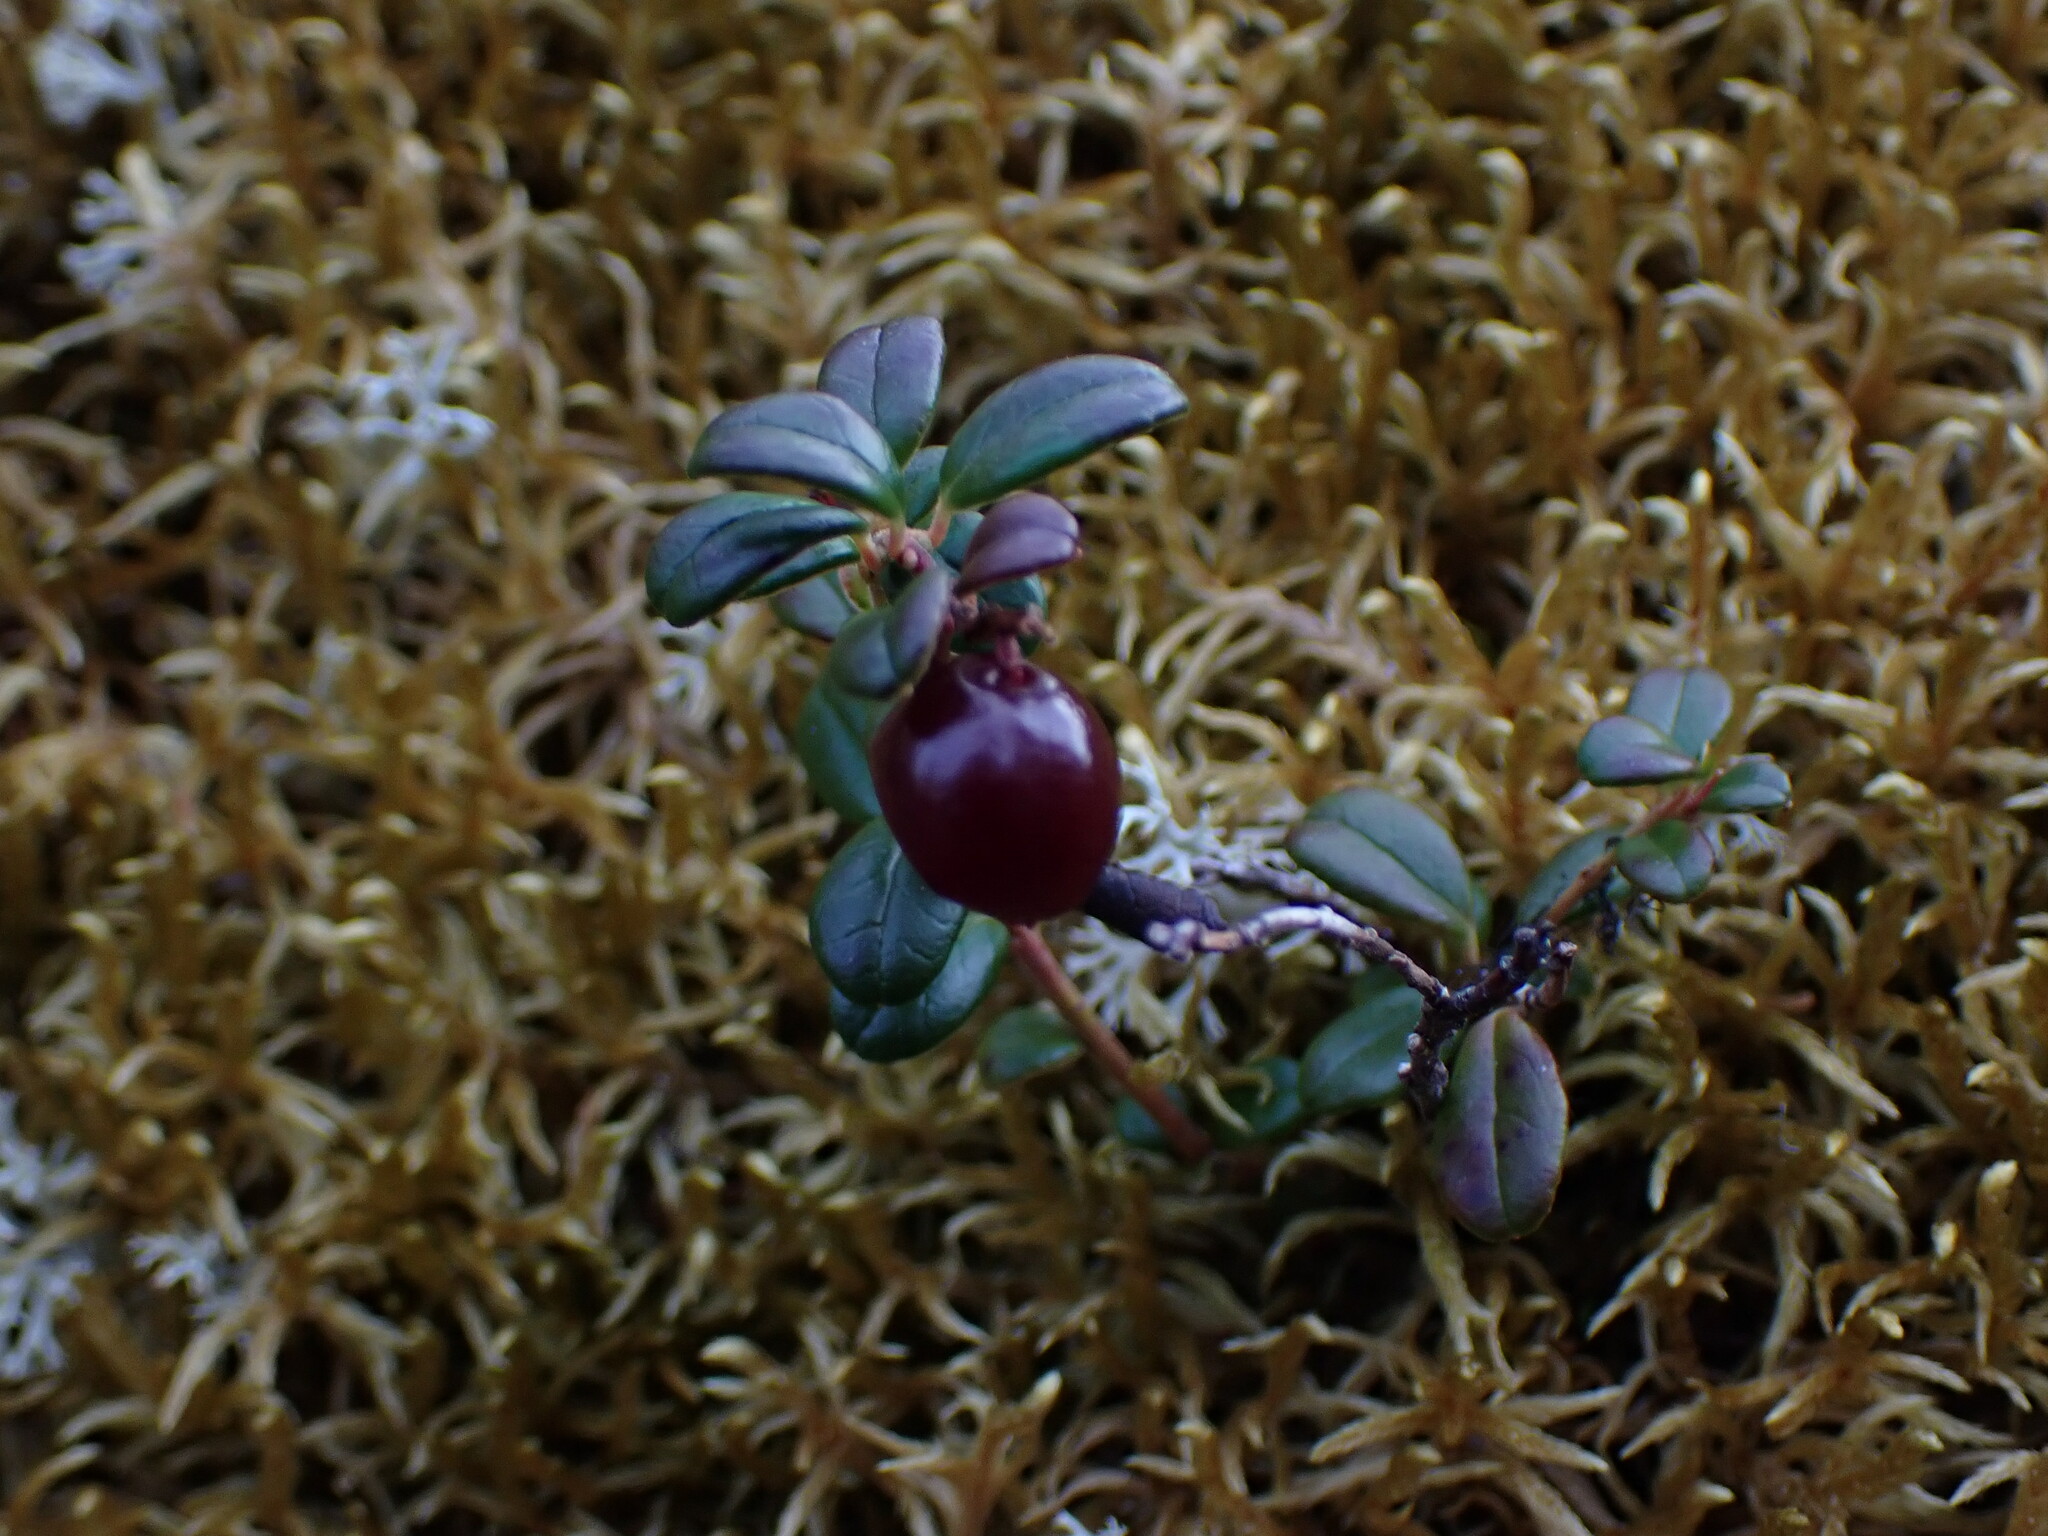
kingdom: Plantae
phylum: Tracheophyta
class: Magnoliopsida
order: Ericales
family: Ericaceae
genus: Vaccinium
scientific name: Vaccinium vitis-idaea
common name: Cowberry
